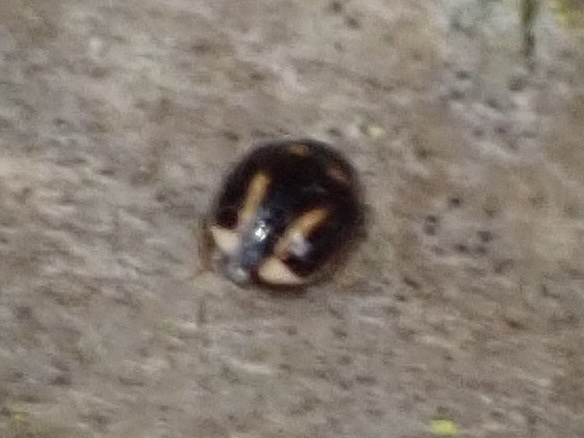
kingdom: Animalia
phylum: Arthropoda
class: Insecta
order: Coleoptera
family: Coccinellidae
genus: Hyperaspis
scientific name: Hyperaspis trifurcata
